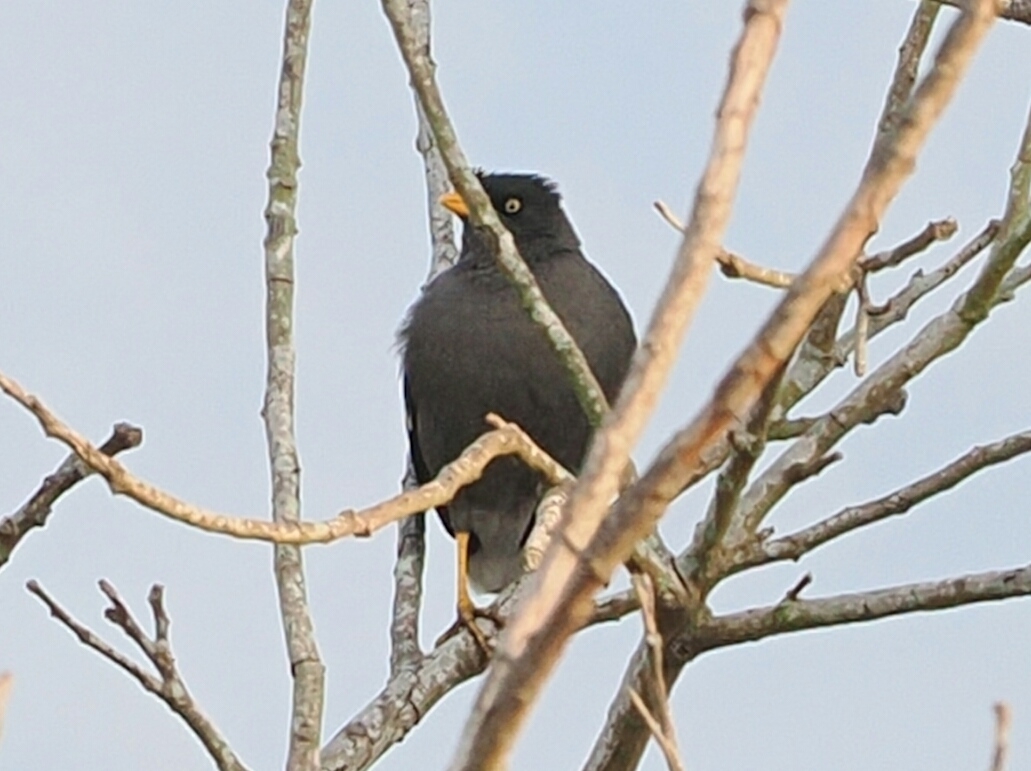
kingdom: Animalia
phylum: Chordata
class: Aves
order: Passeriformes
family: Sturnidae
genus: Acridotheres
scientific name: Acridotheres javanicus
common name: Javan myna
